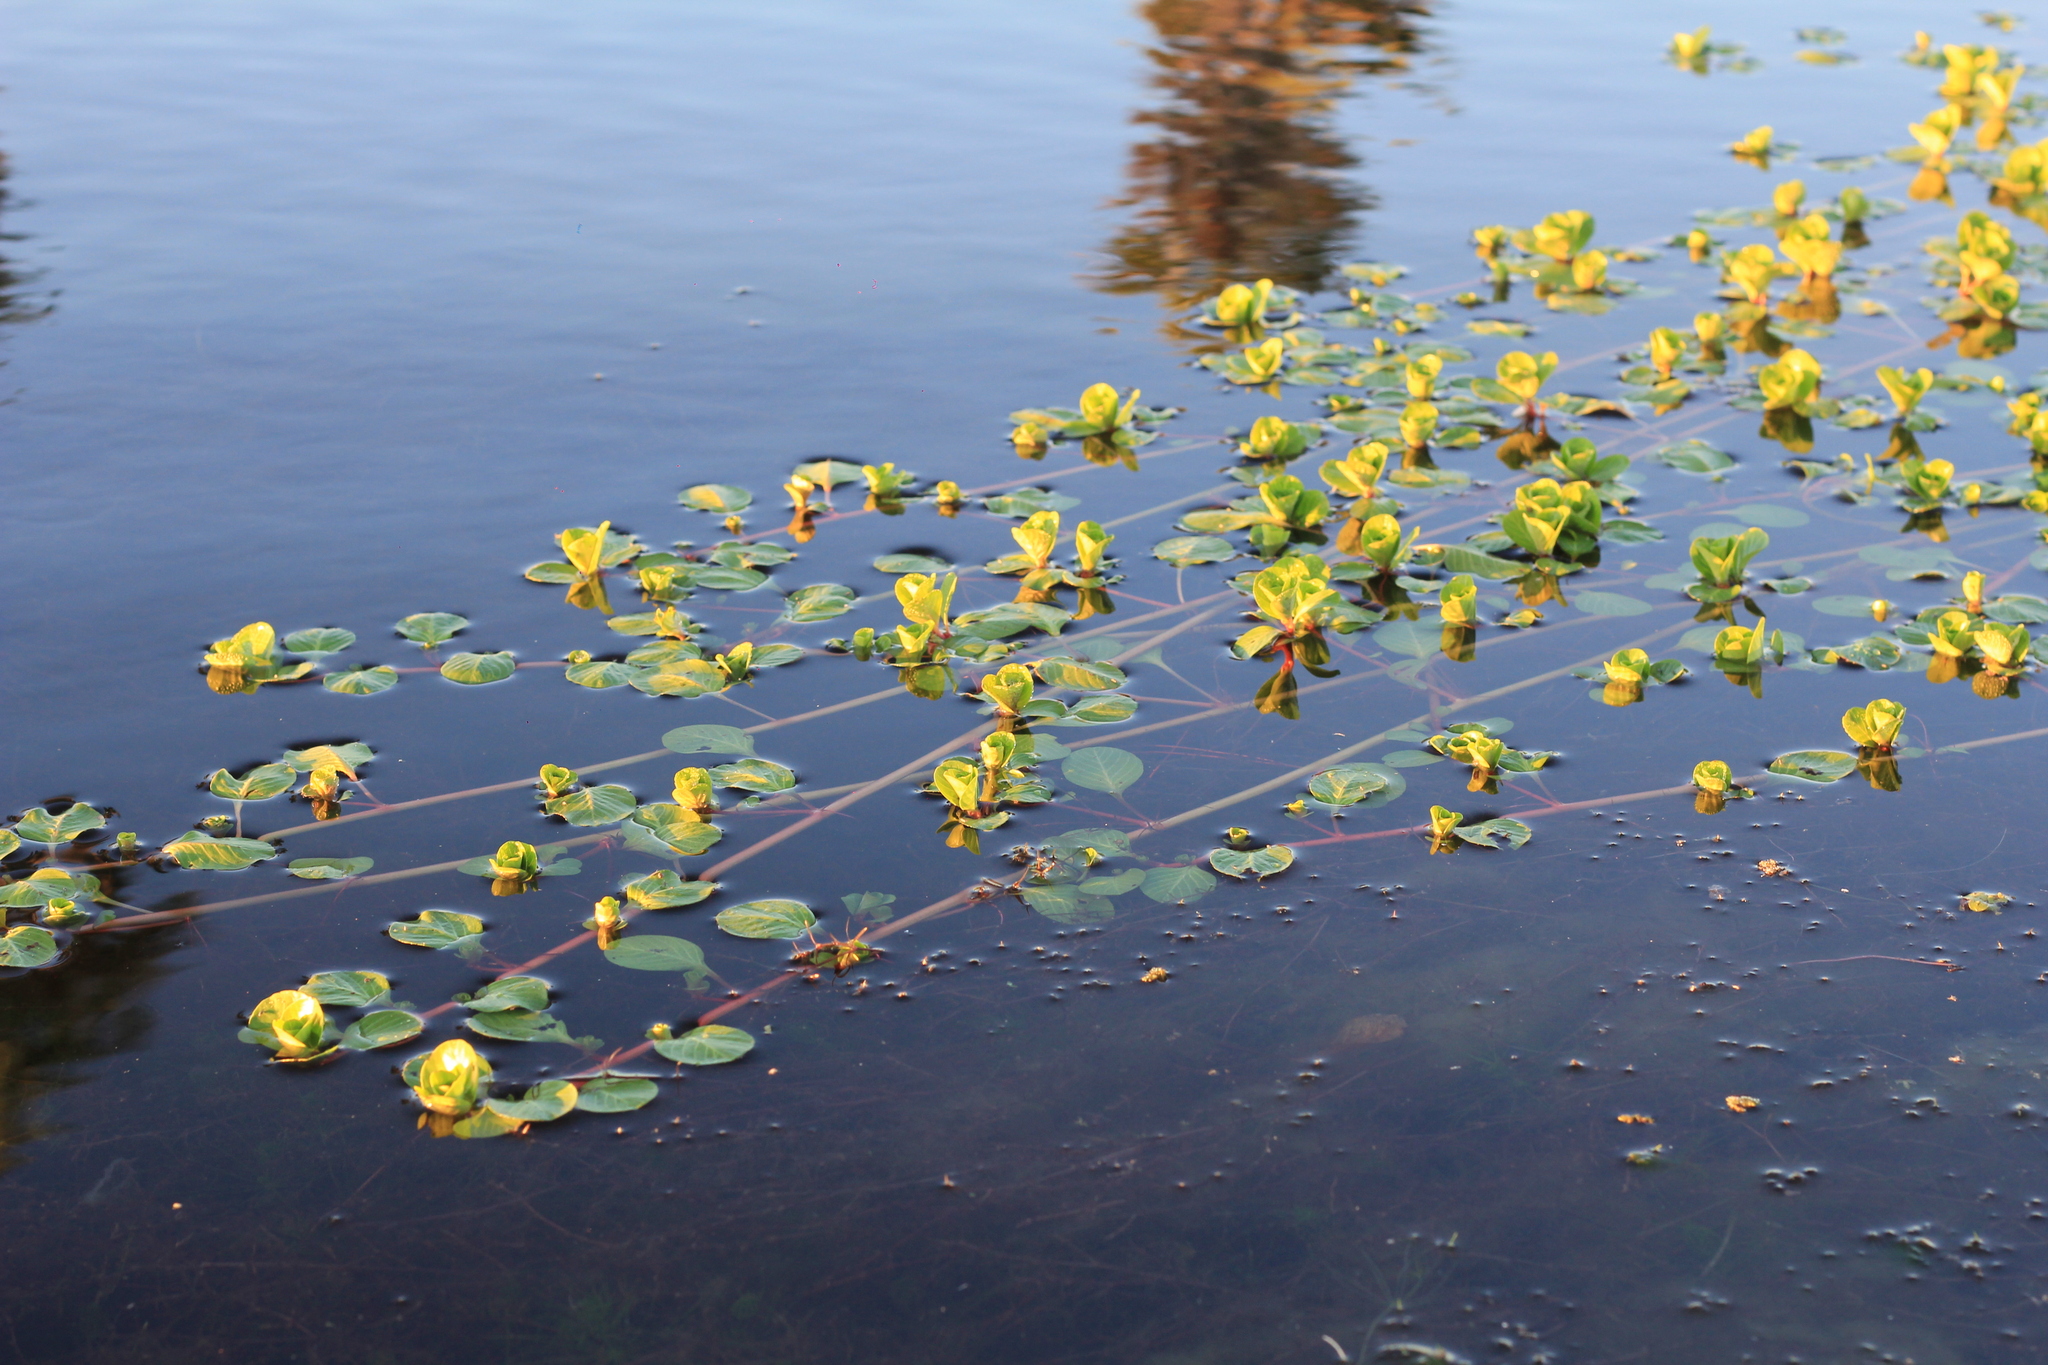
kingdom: Plantae
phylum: Tracheophyta
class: Magnoliopsida
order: Myrtales
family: Onagraceae
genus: Ludwigia
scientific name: Ludwigia peploides
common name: Floating primrose-willow
